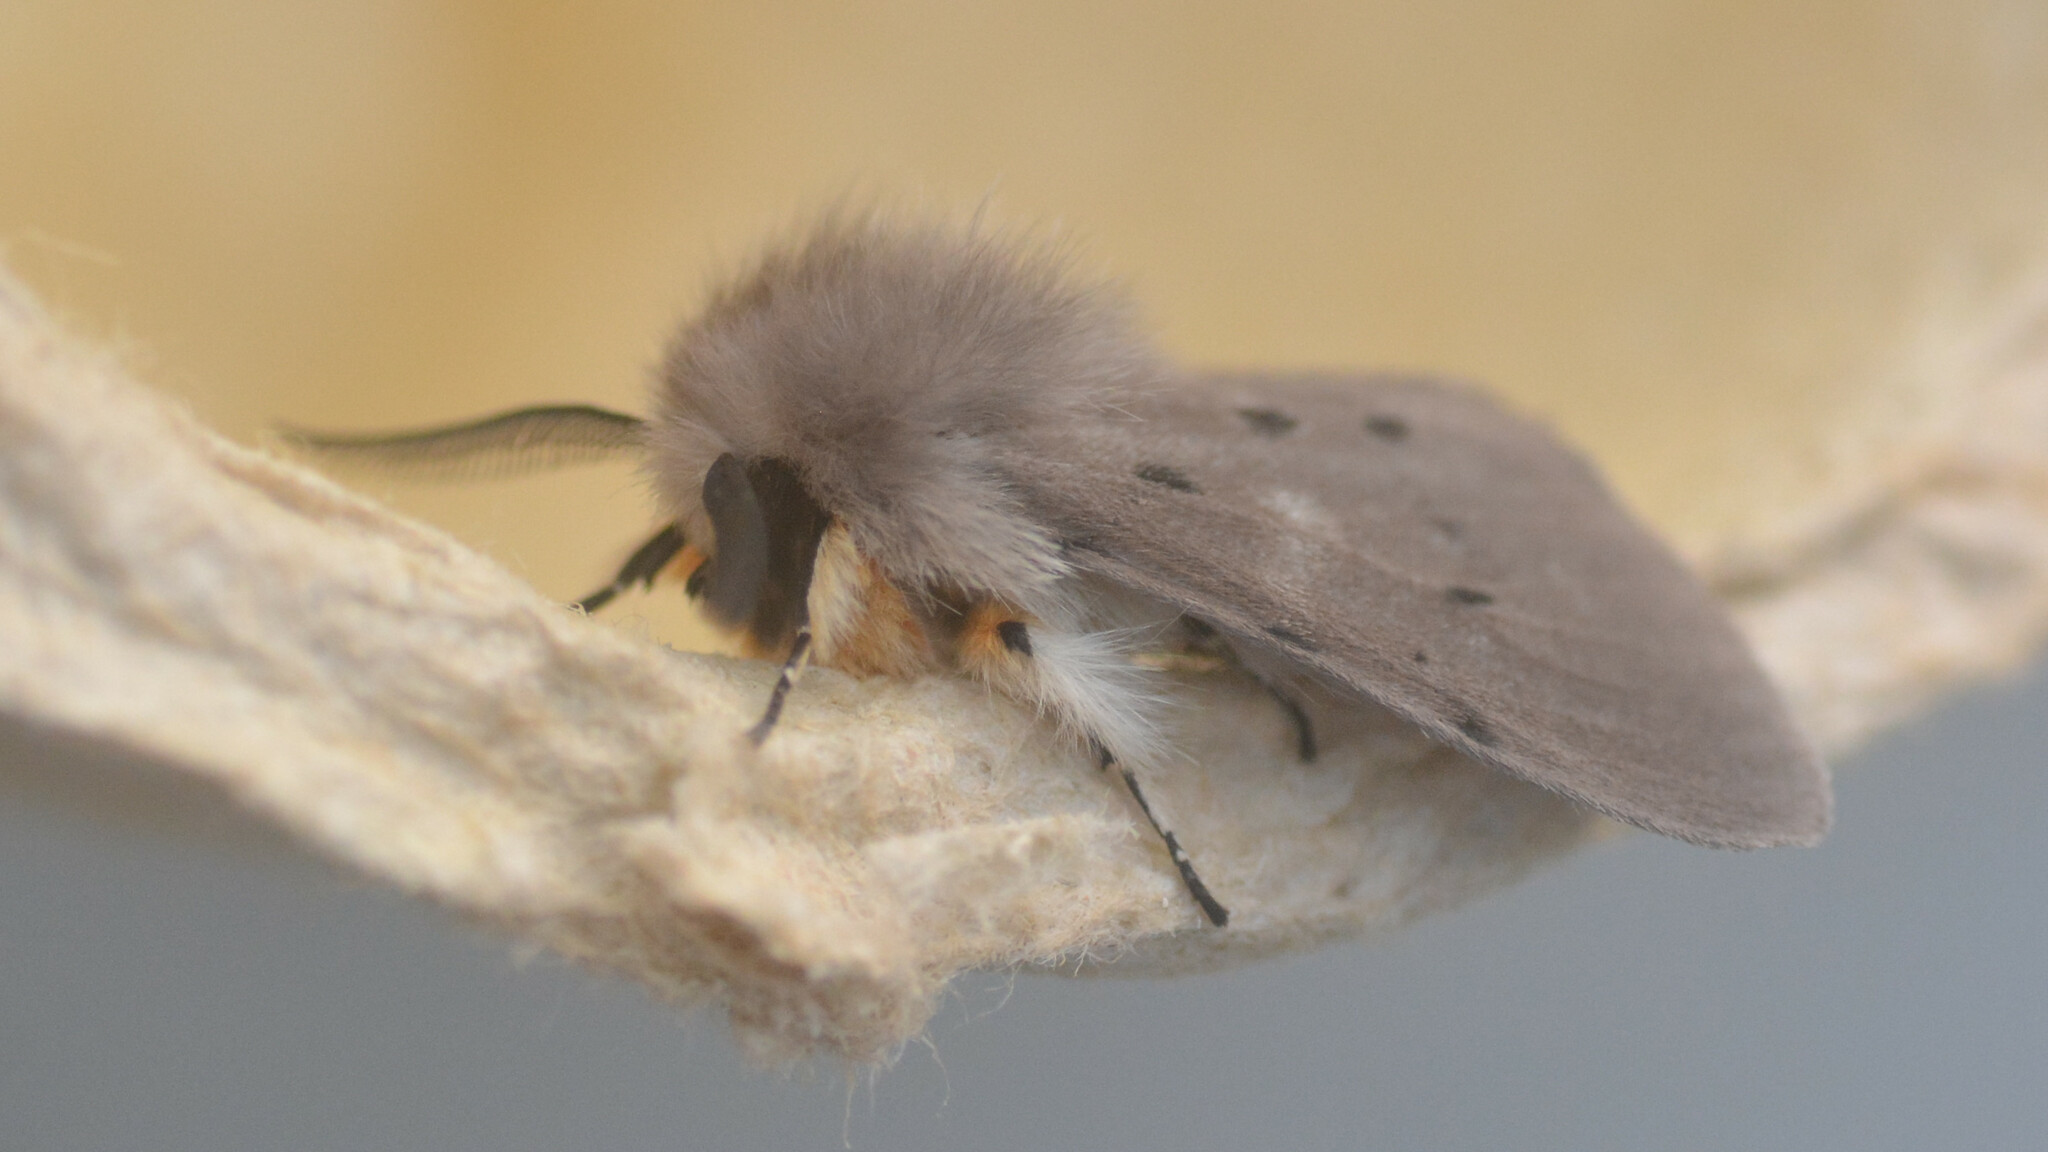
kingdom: Animalia
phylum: Arthropoda
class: Insecta
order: Lepidoptera
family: Erebidae
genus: Diaphora
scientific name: Diaphora mendica
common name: Muslin moth
